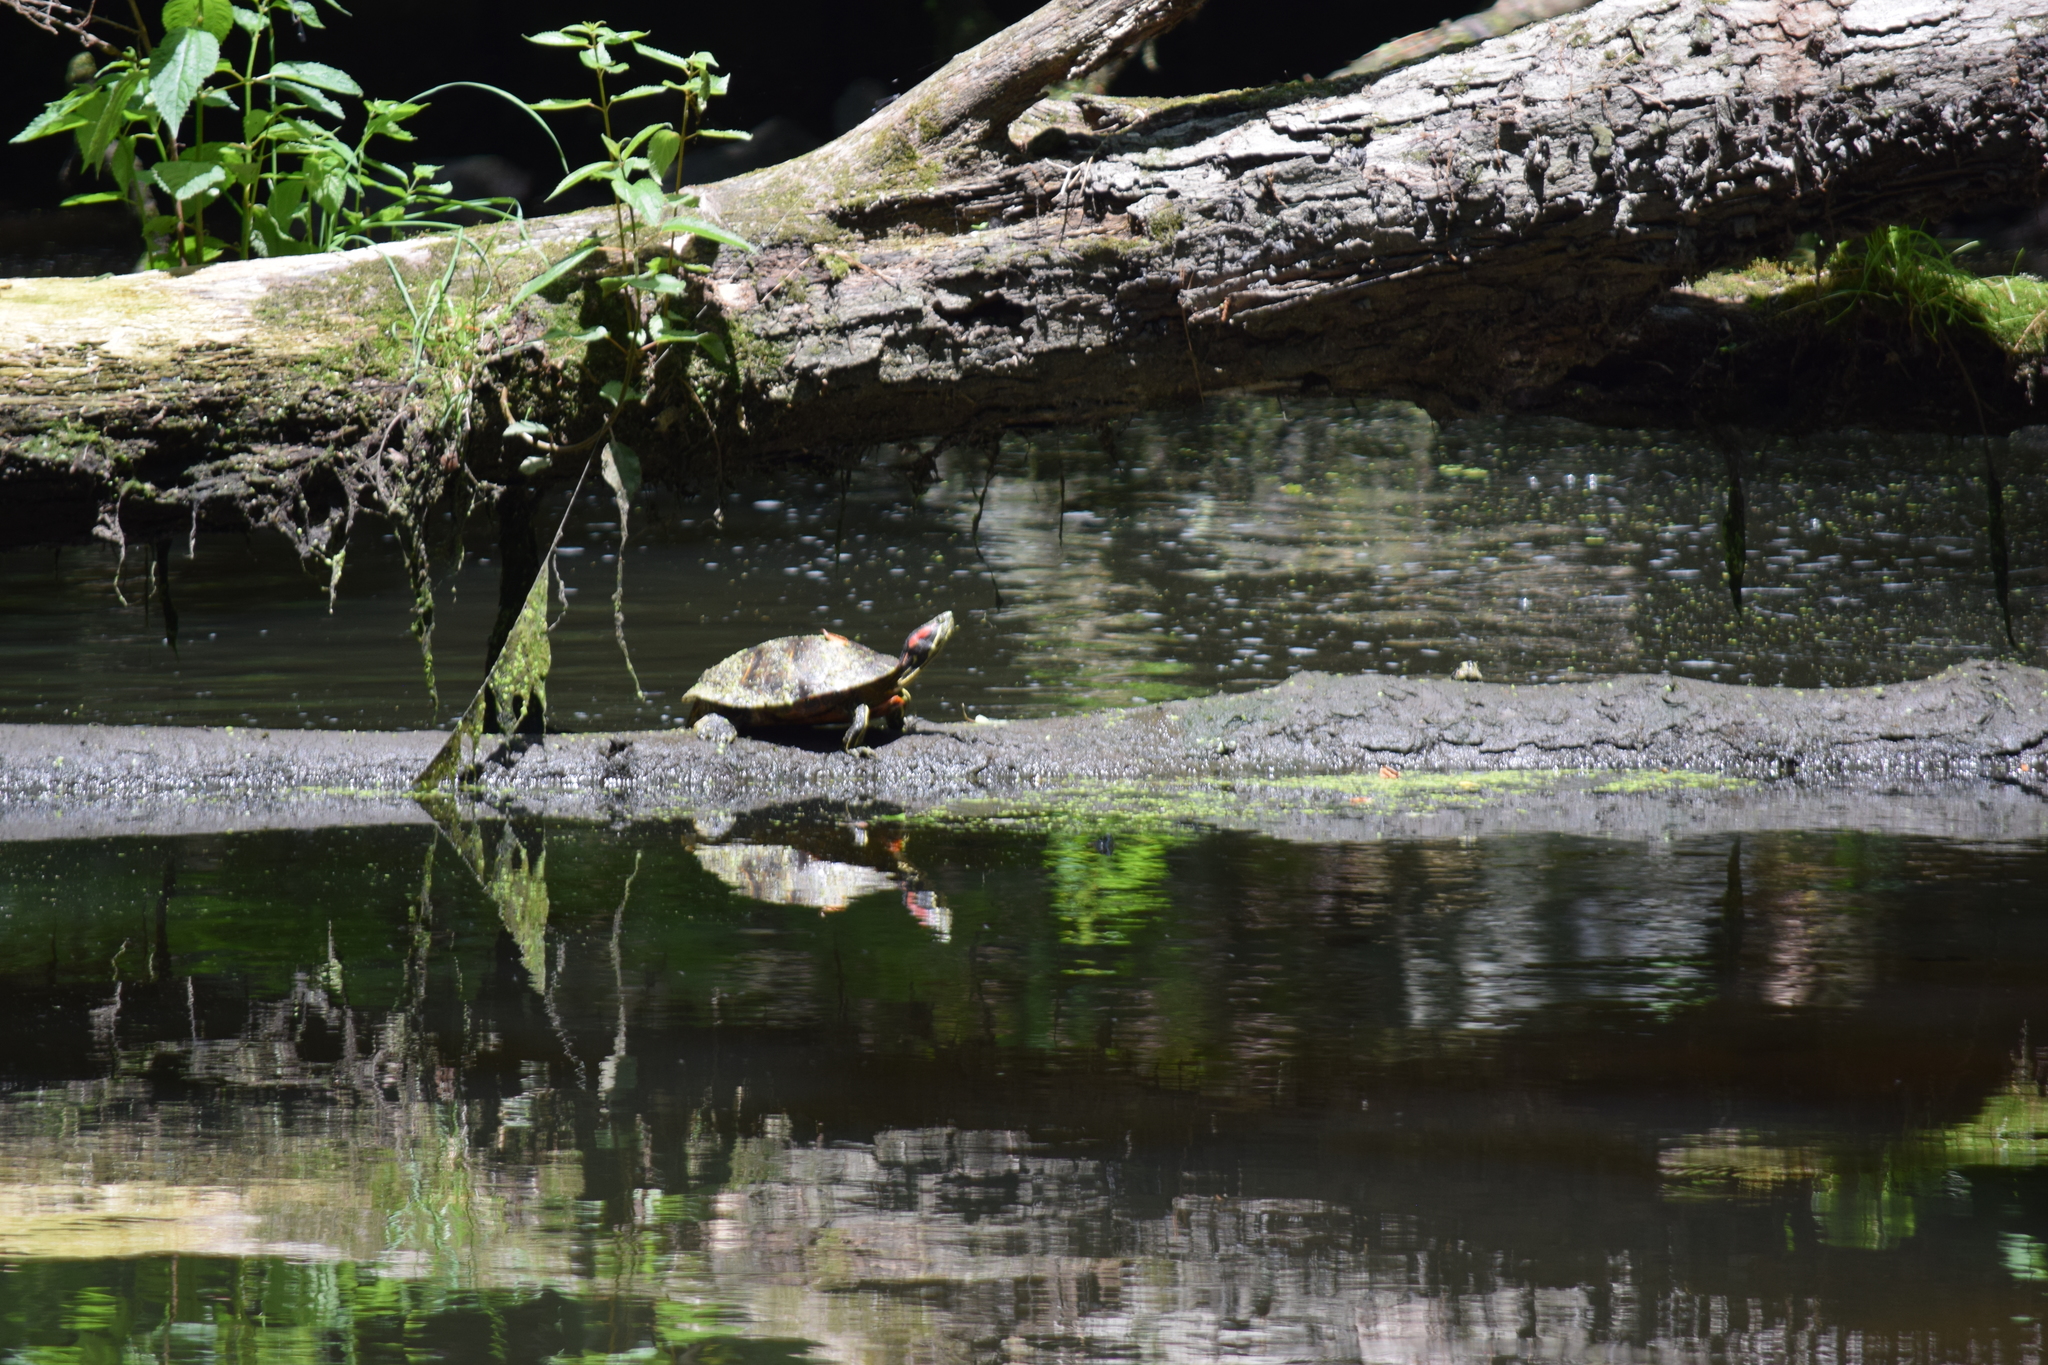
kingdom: Animalia
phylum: Chordata
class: Testudines
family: Emydidae
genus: Trachemys
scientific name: Trachemys scripta
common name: Slider
